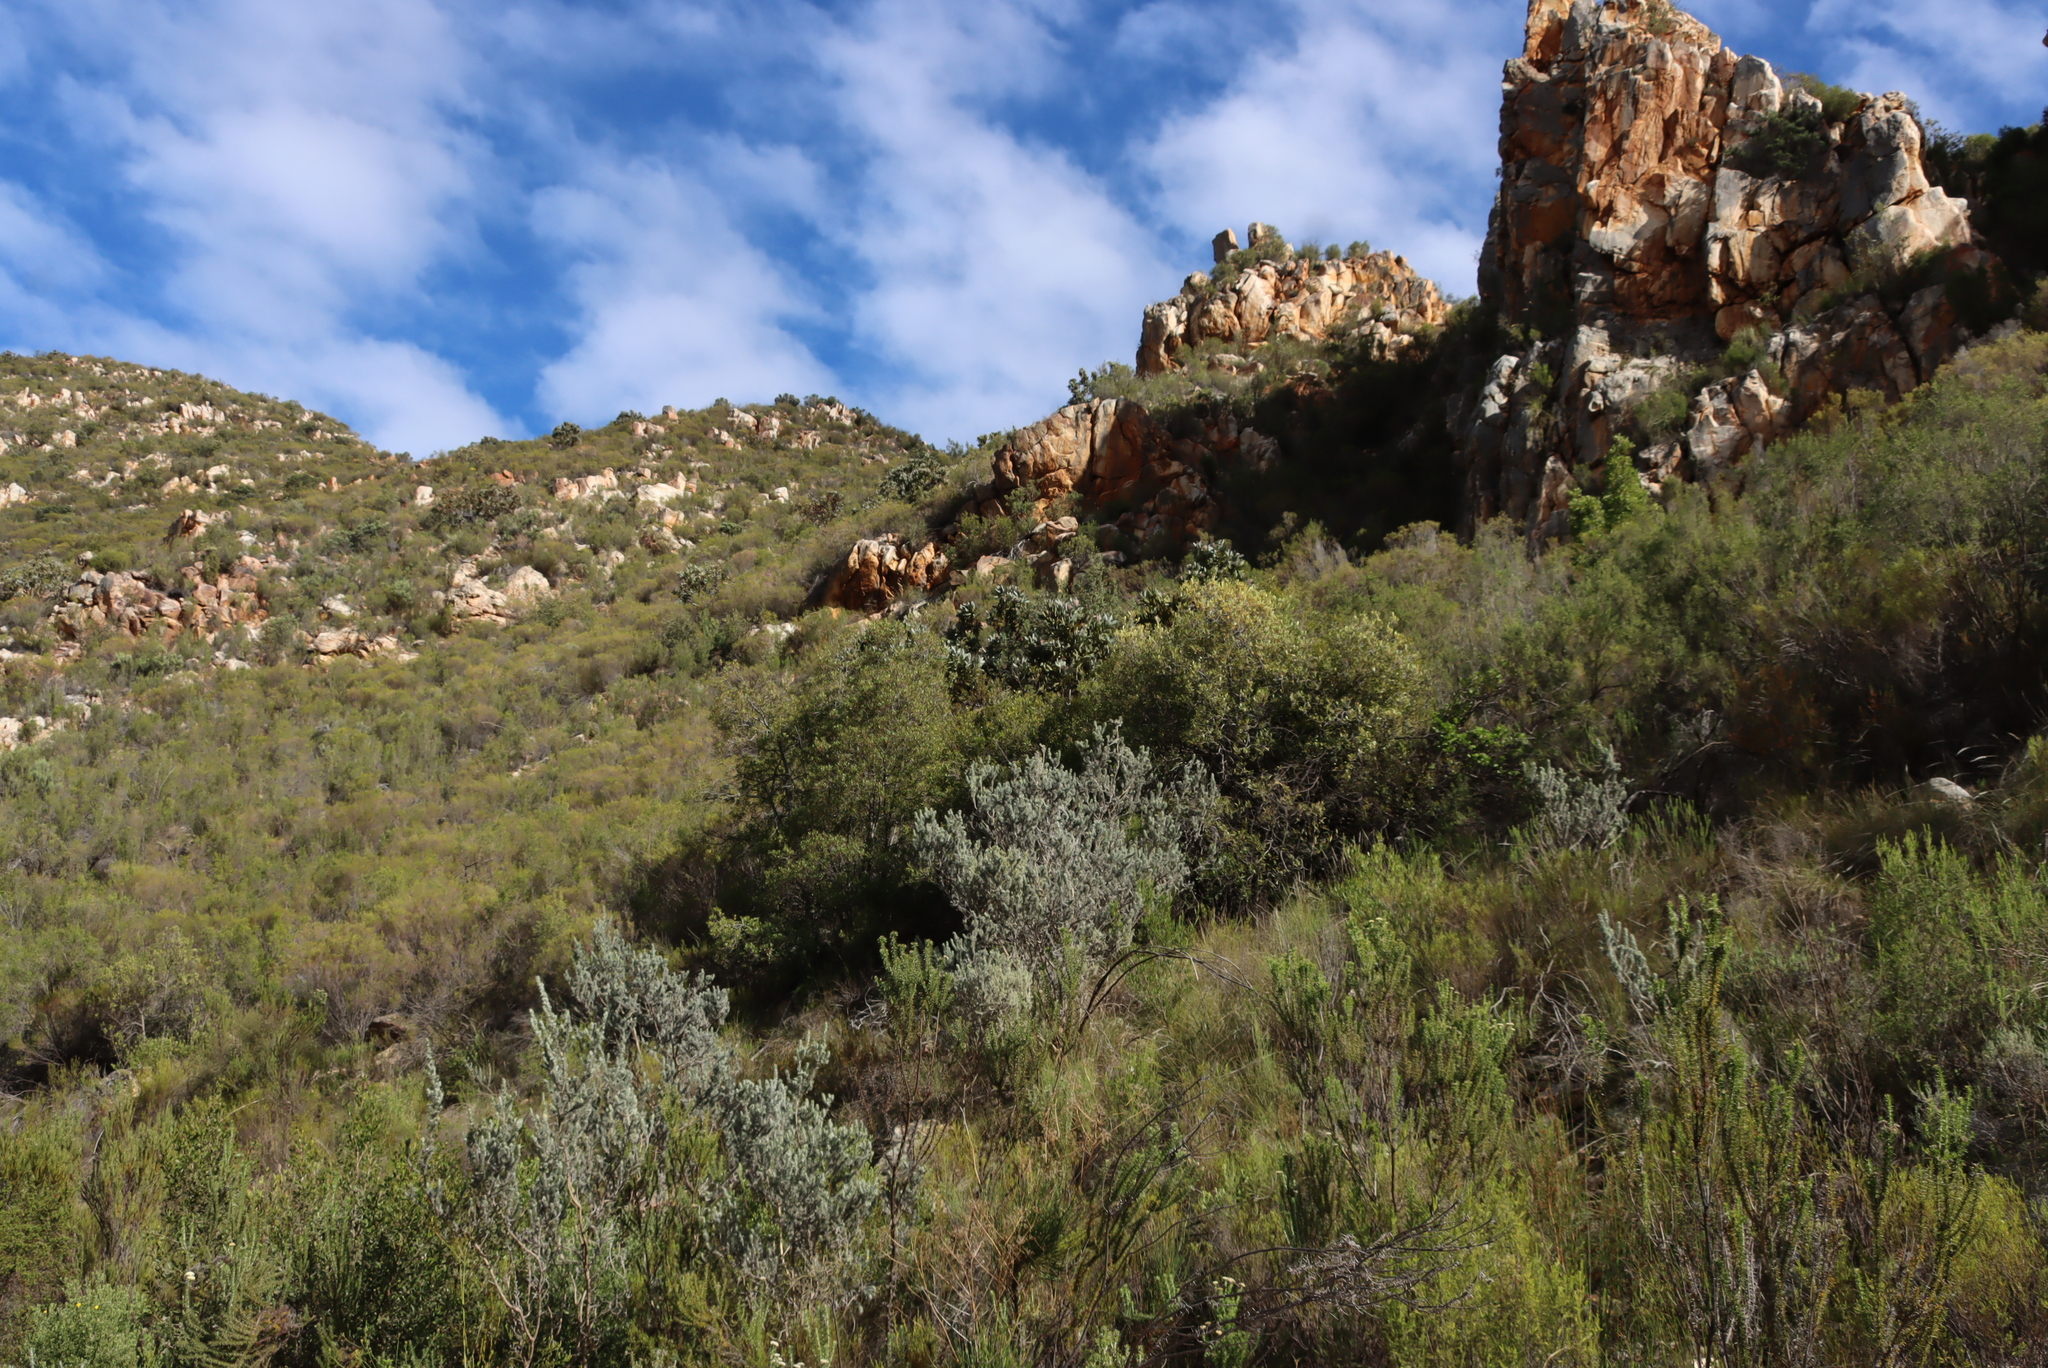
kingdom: Plantae
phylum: Tracheophyta
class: Magnoliopsida
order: Proteales
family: Proteaceae
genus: Protea
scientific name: Protea lorifolia
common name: Strap-leaved protea
